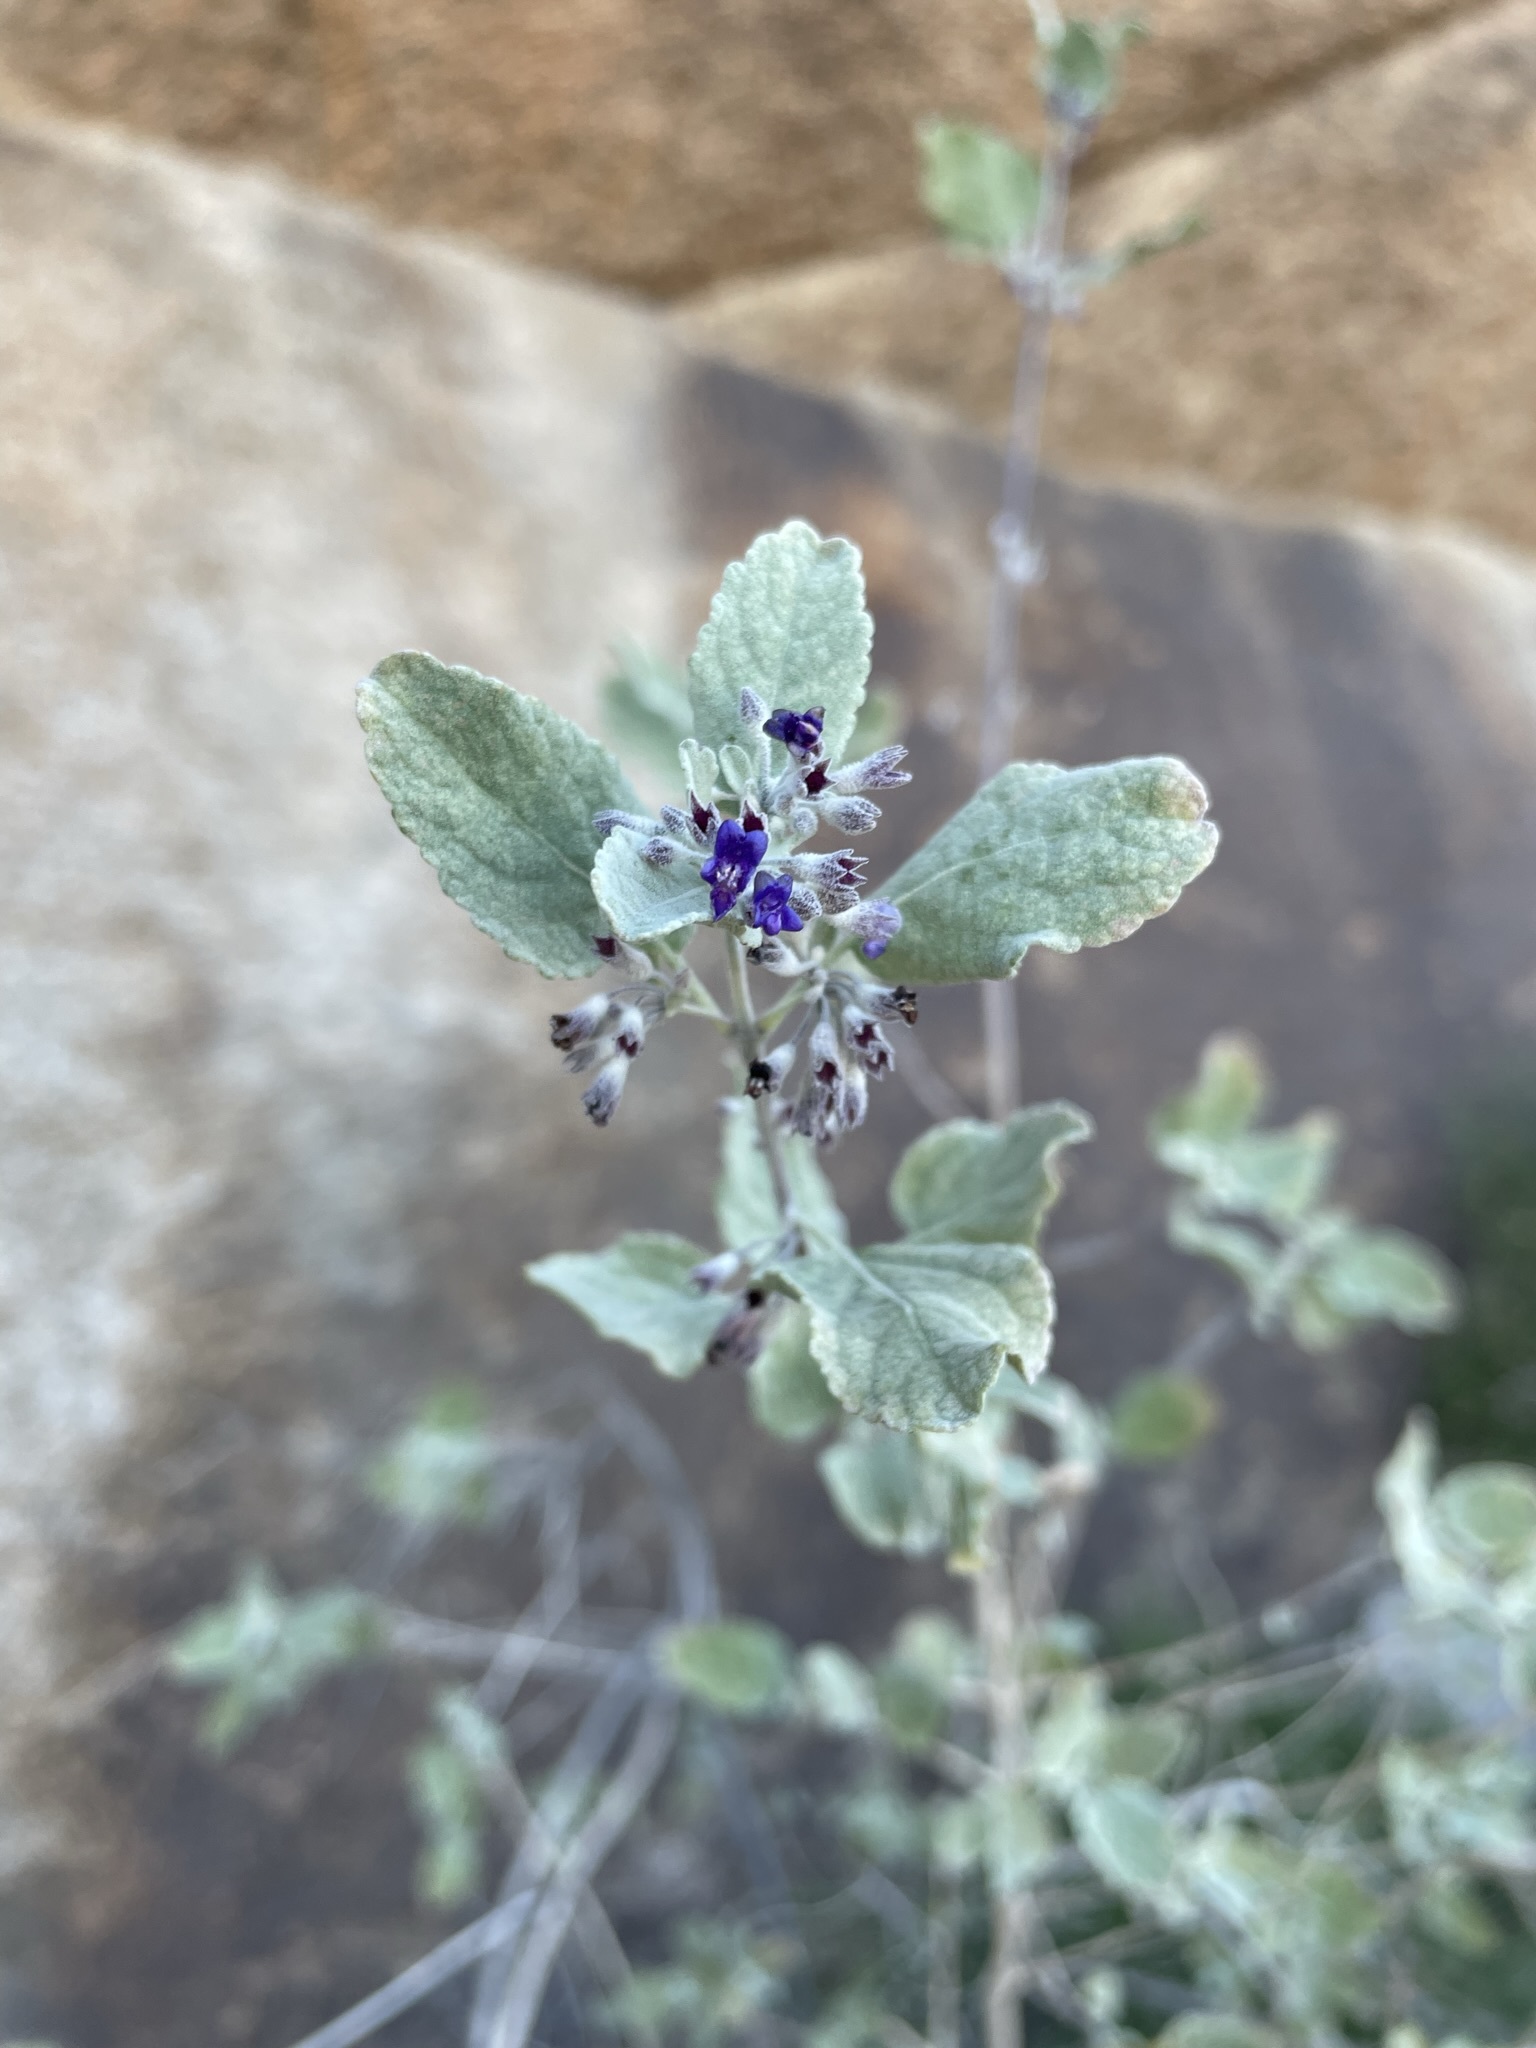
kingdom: Plantae
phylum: Tracheophyta
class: Magnoliopsida
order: Lamiales
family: Lamiaceae
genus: Condea
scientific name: Condea emoryi
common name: Chia
